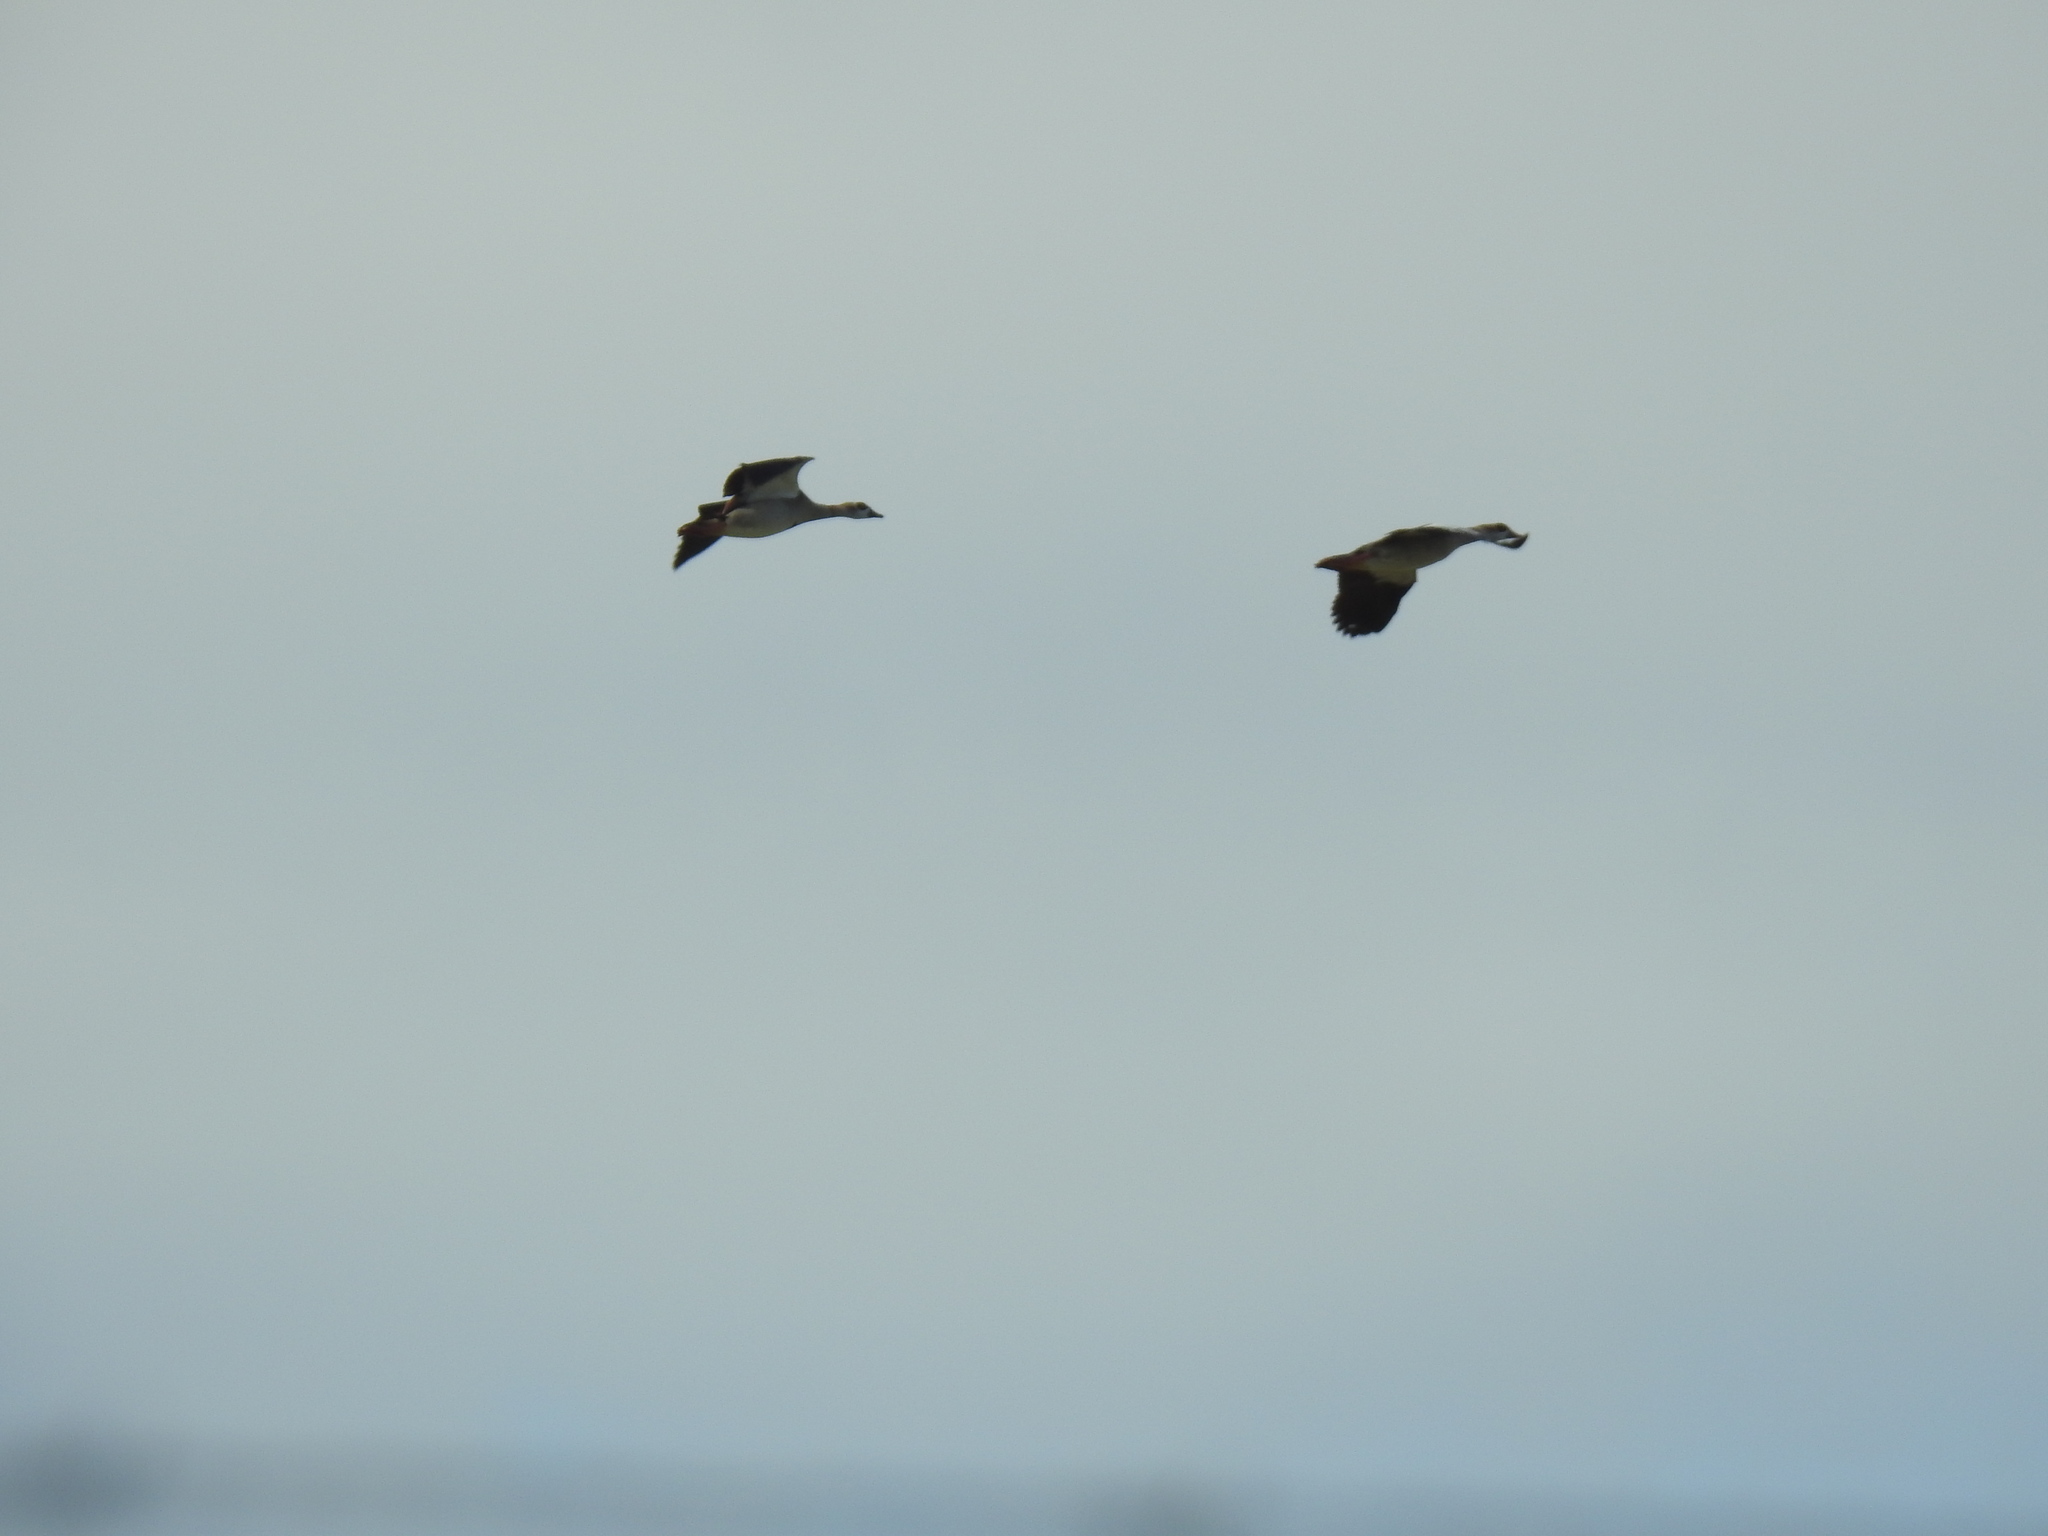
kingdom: Animalia
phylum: Chordata
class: Aves
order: Anseriformes
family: Anatidae
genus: Alopochen
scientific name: Alopochen aegyptiaca
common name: Egyptian goose
